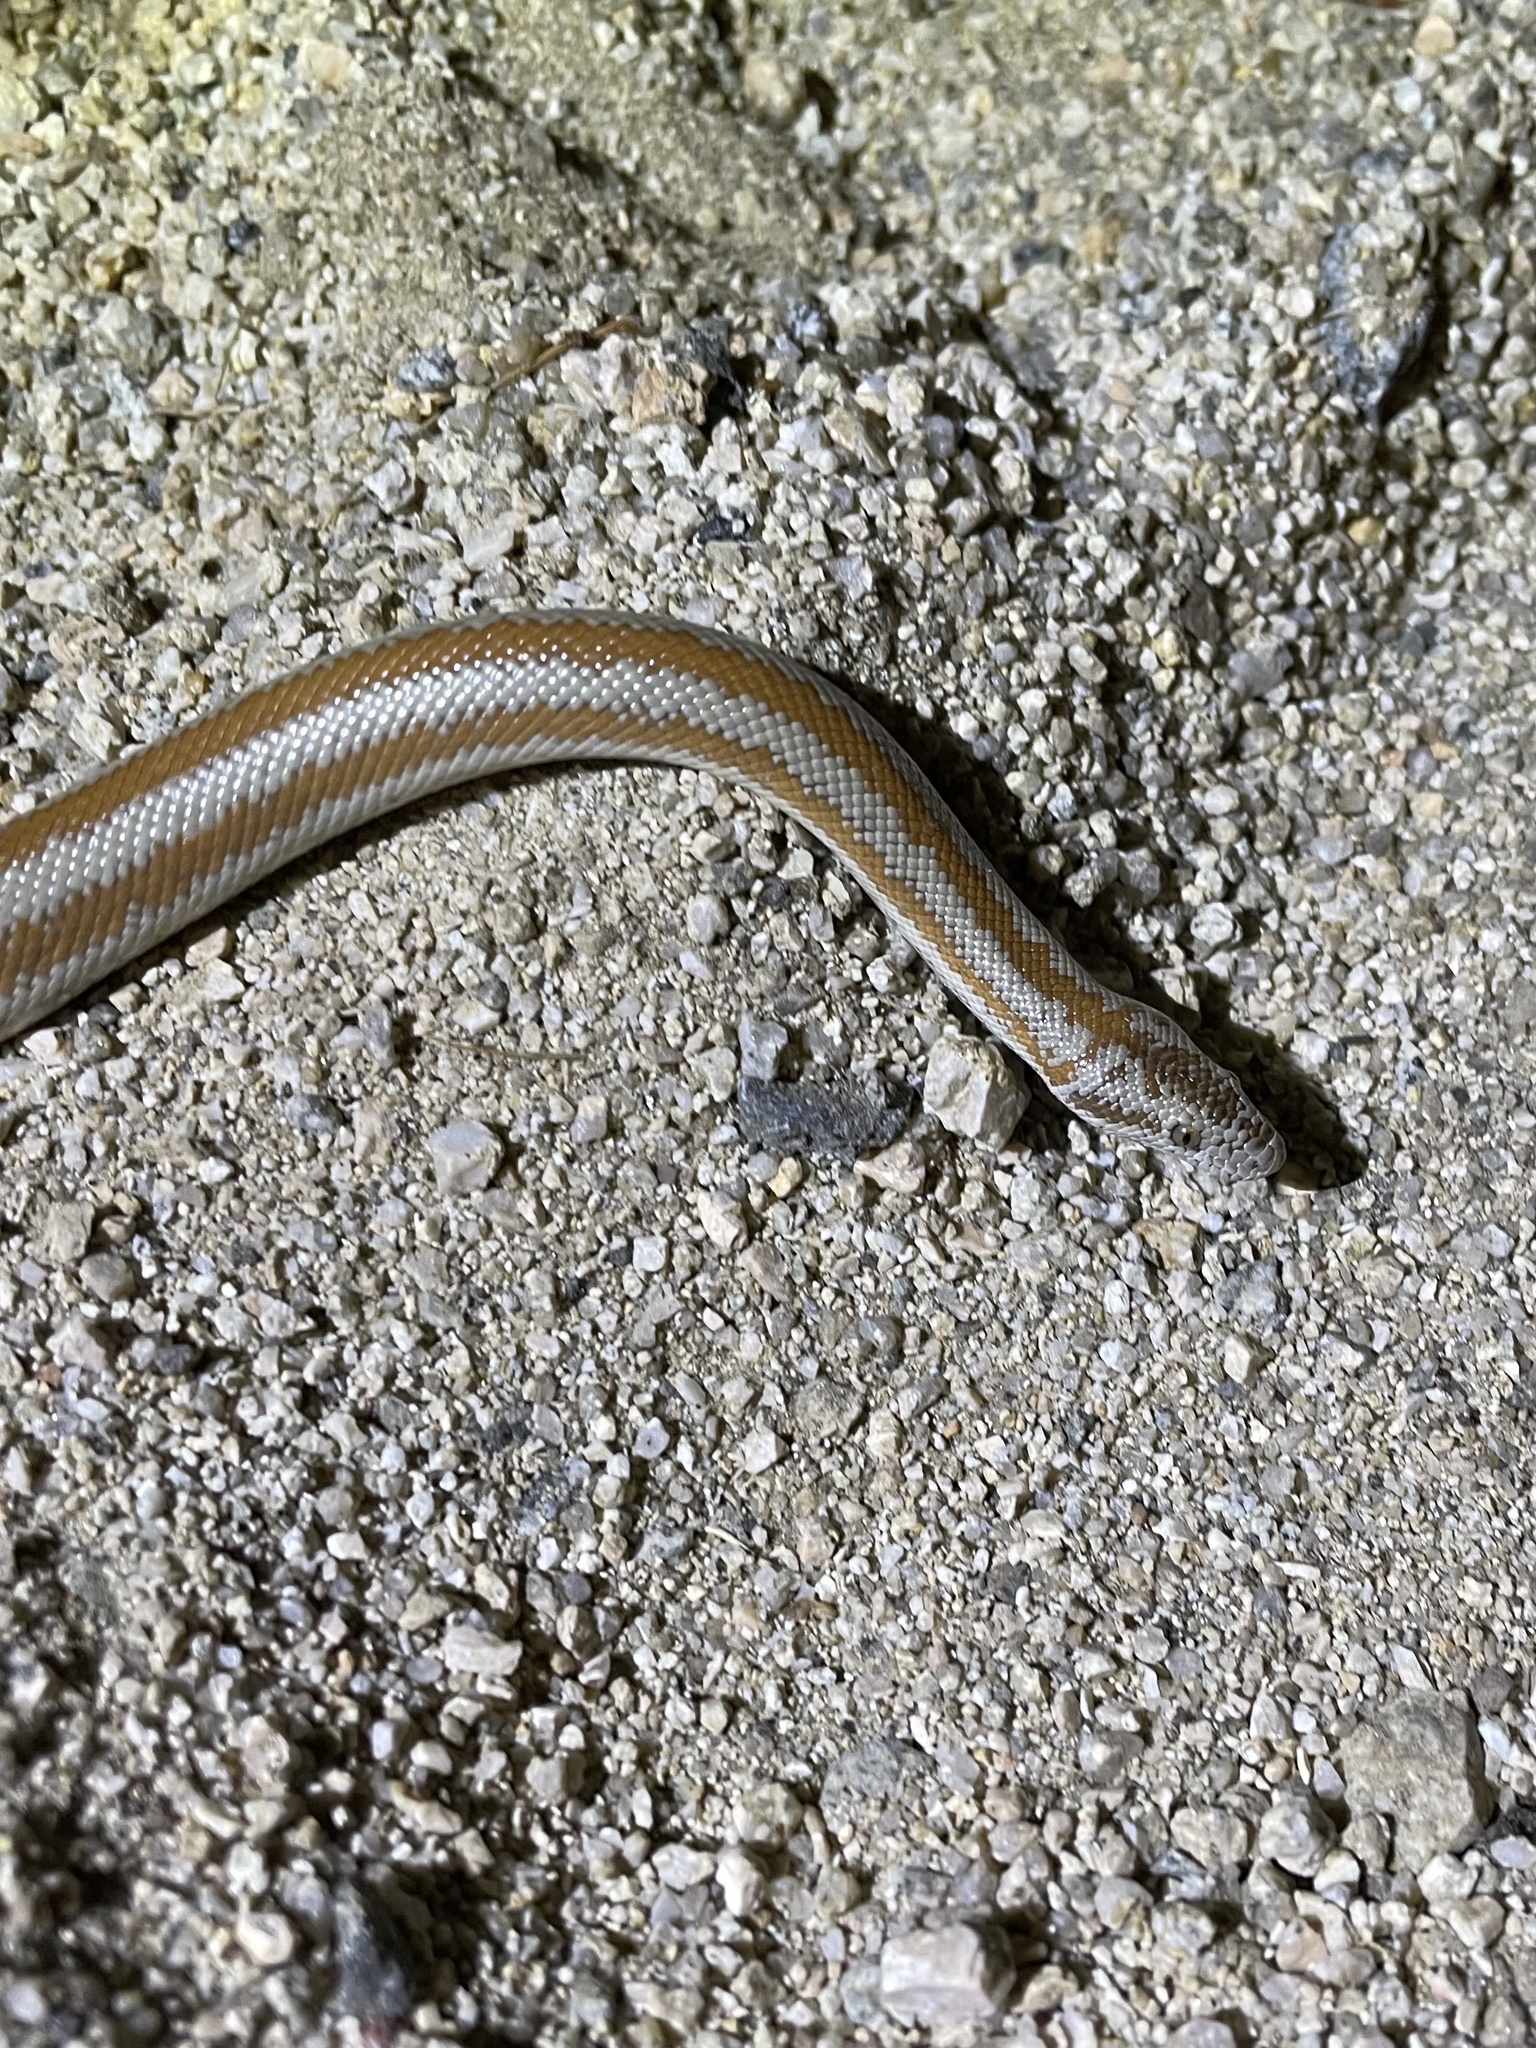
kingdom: Animalia
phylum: Chordata
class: Squamata
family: Boidae
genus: Lichanura
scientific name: Lichanura orcutti
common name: Northern three-lined boa
